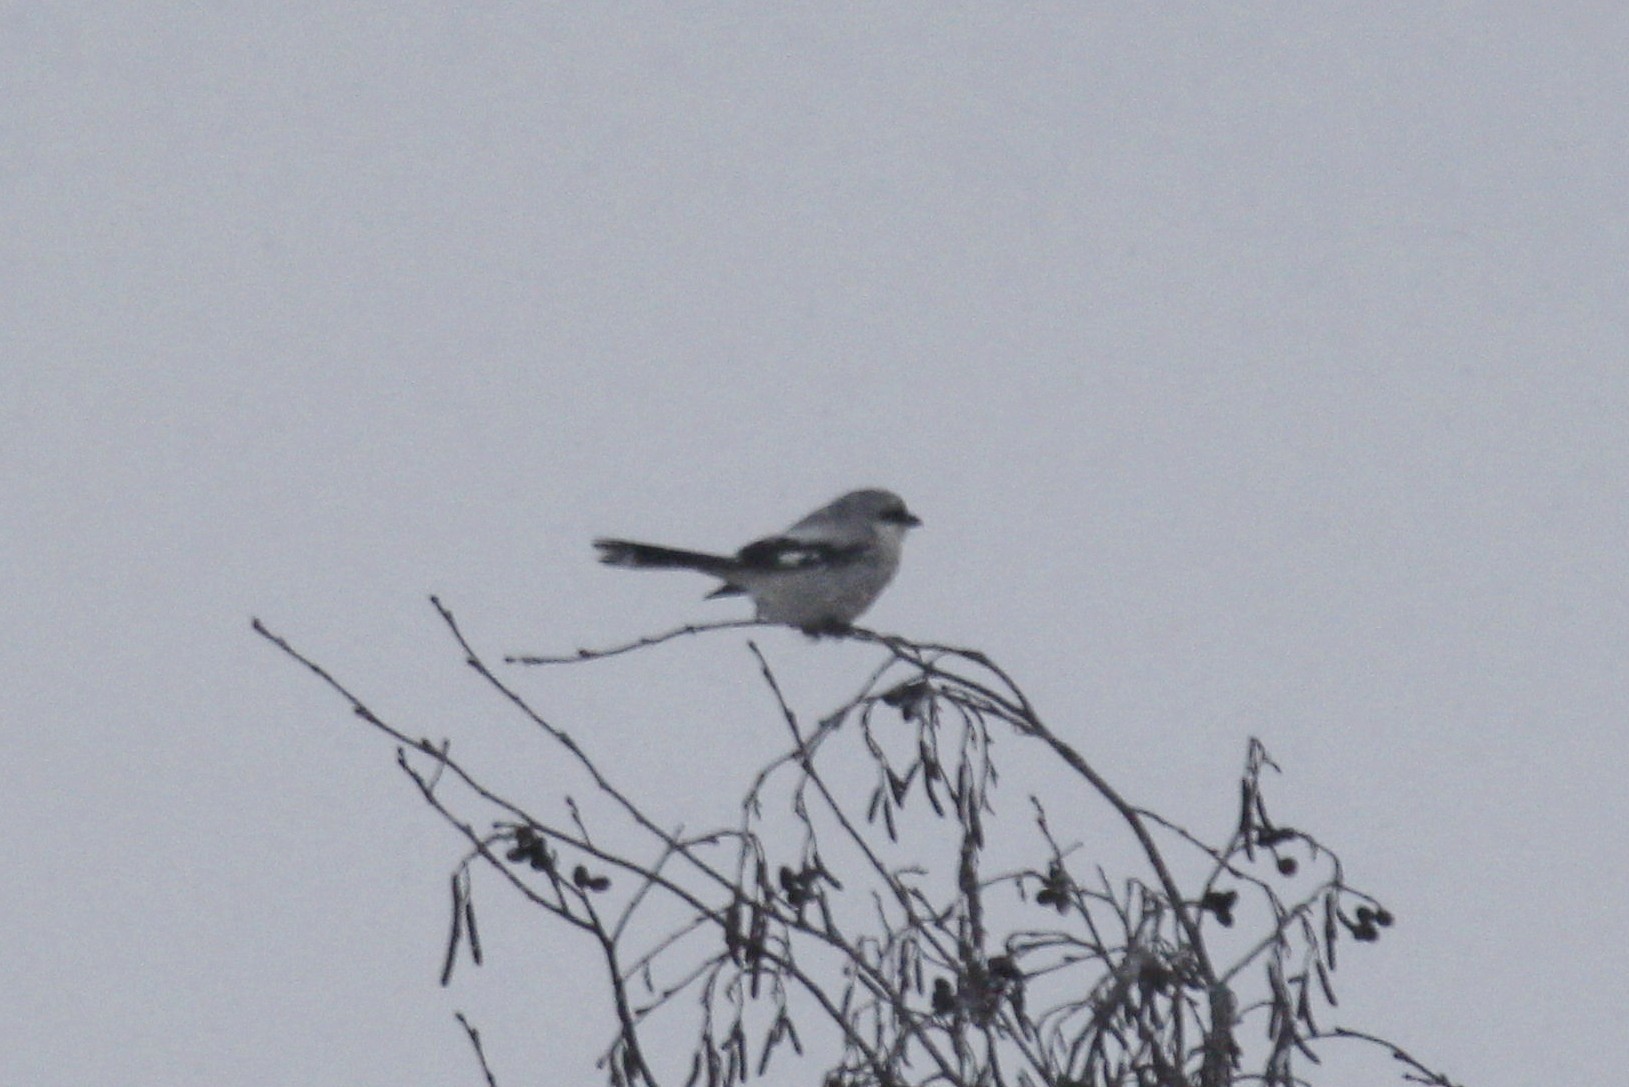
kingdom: Animalia
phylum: Chordata
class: Aves
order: Passeriformes
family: Laniidae
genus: Lanius
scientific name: Lanius excubitor
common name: Great grey shrike
